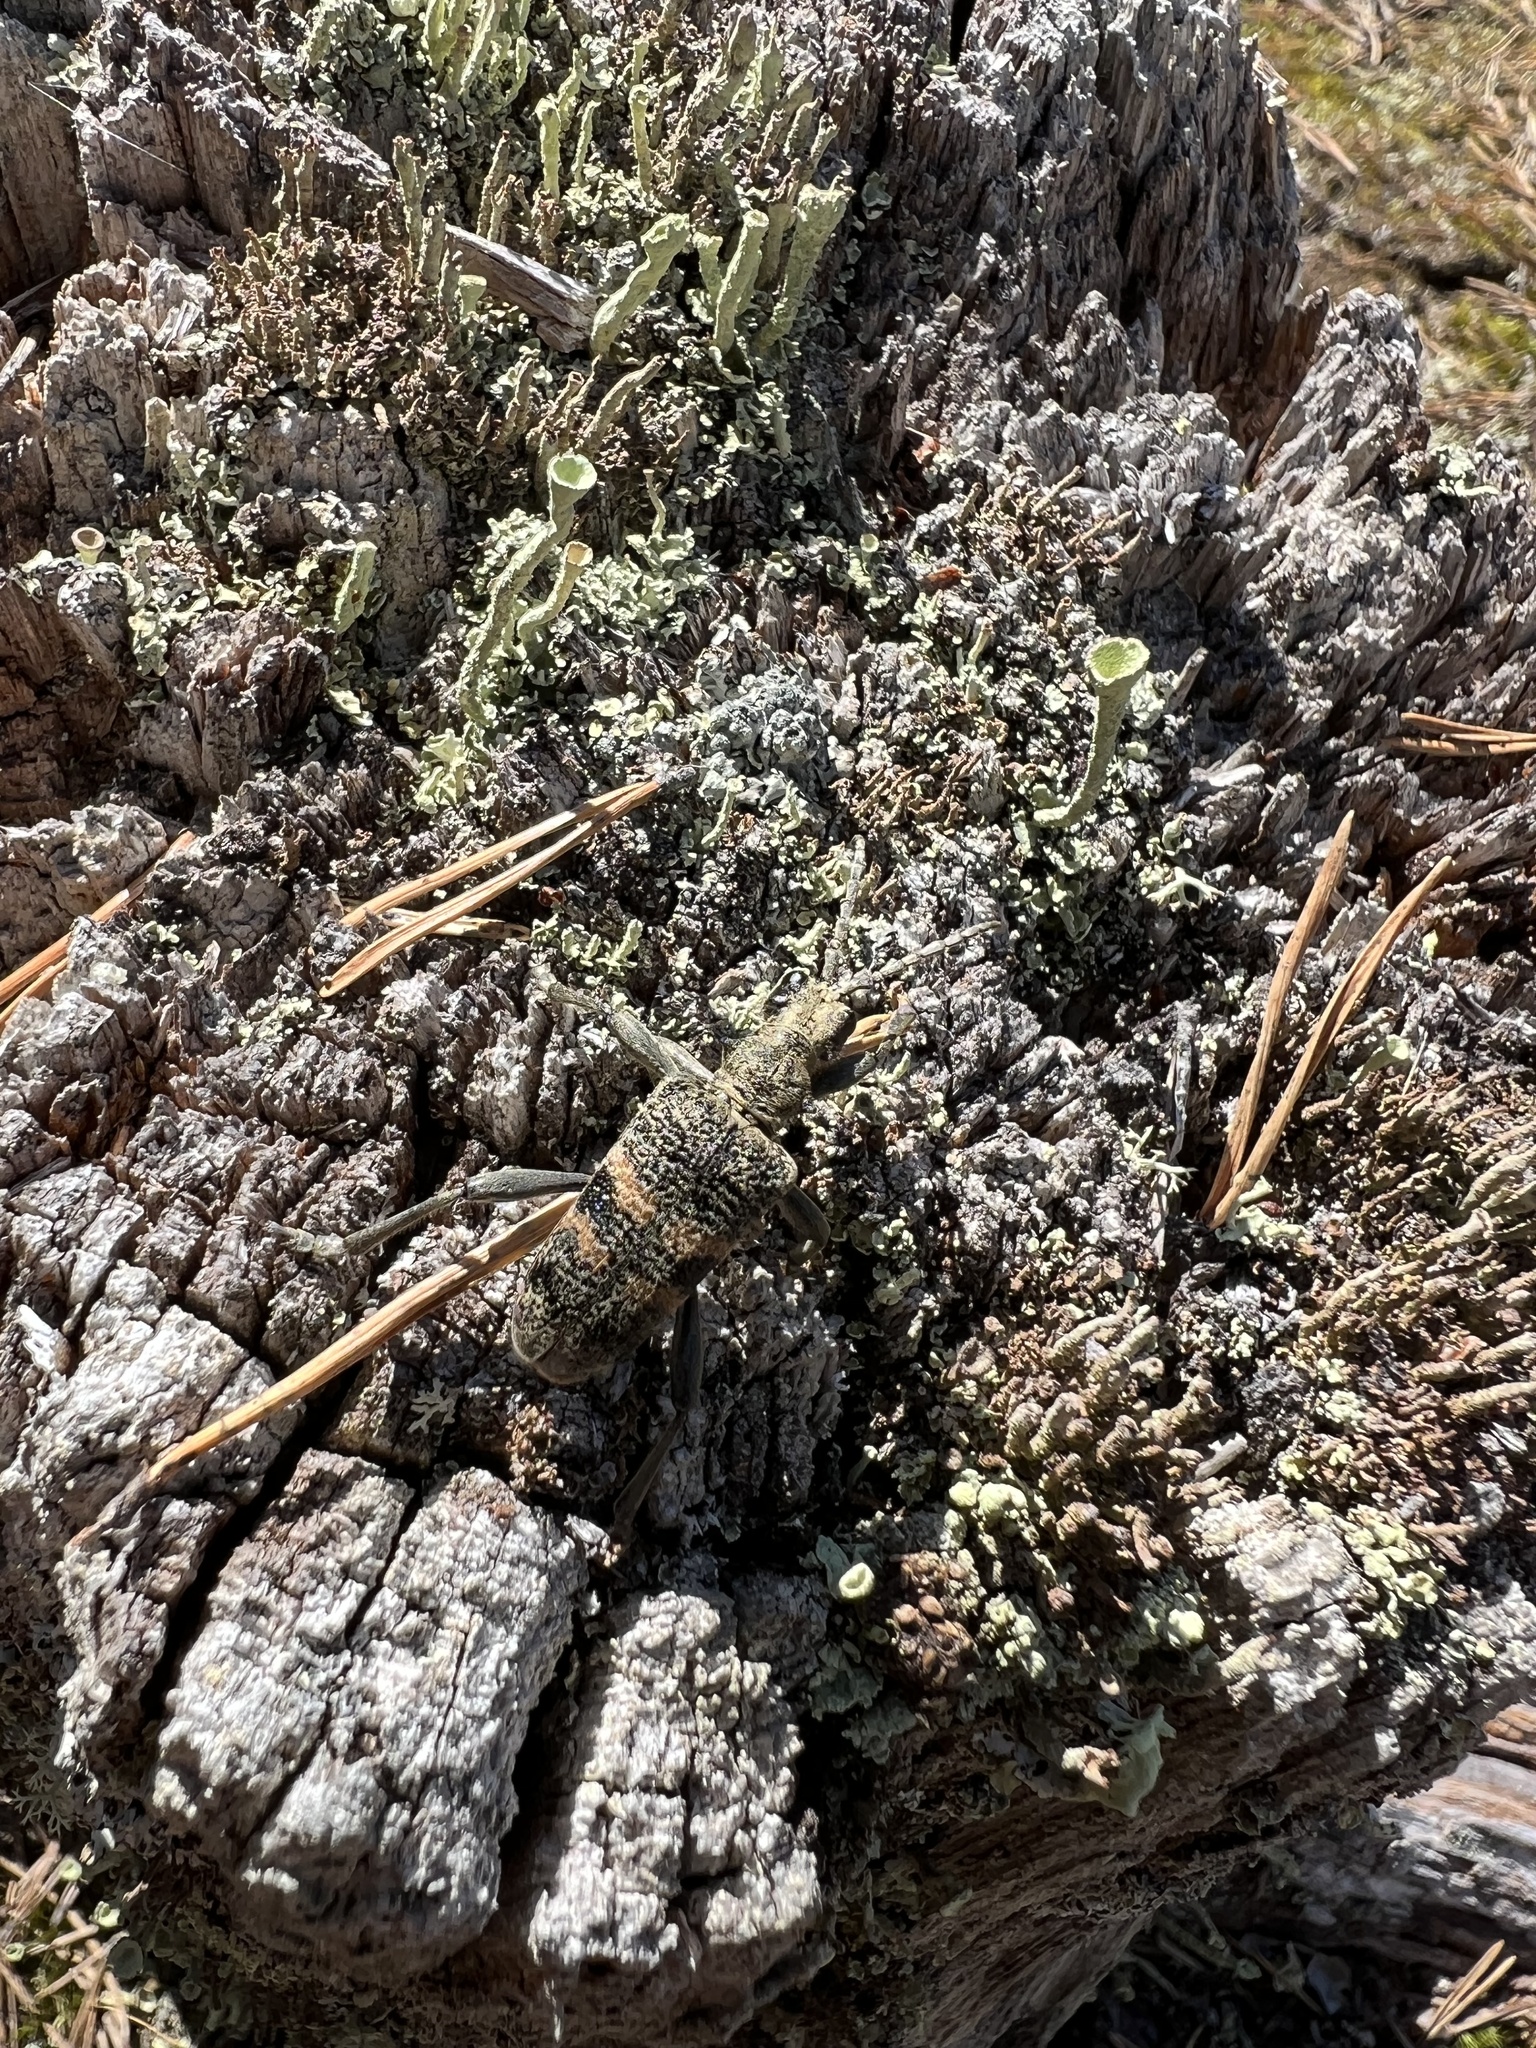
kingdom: Animalia
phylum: Arthropoda
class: Insecta
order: Coleoptera
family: Cerambycidae
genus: Rhagium
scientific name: Rhagium mordax
